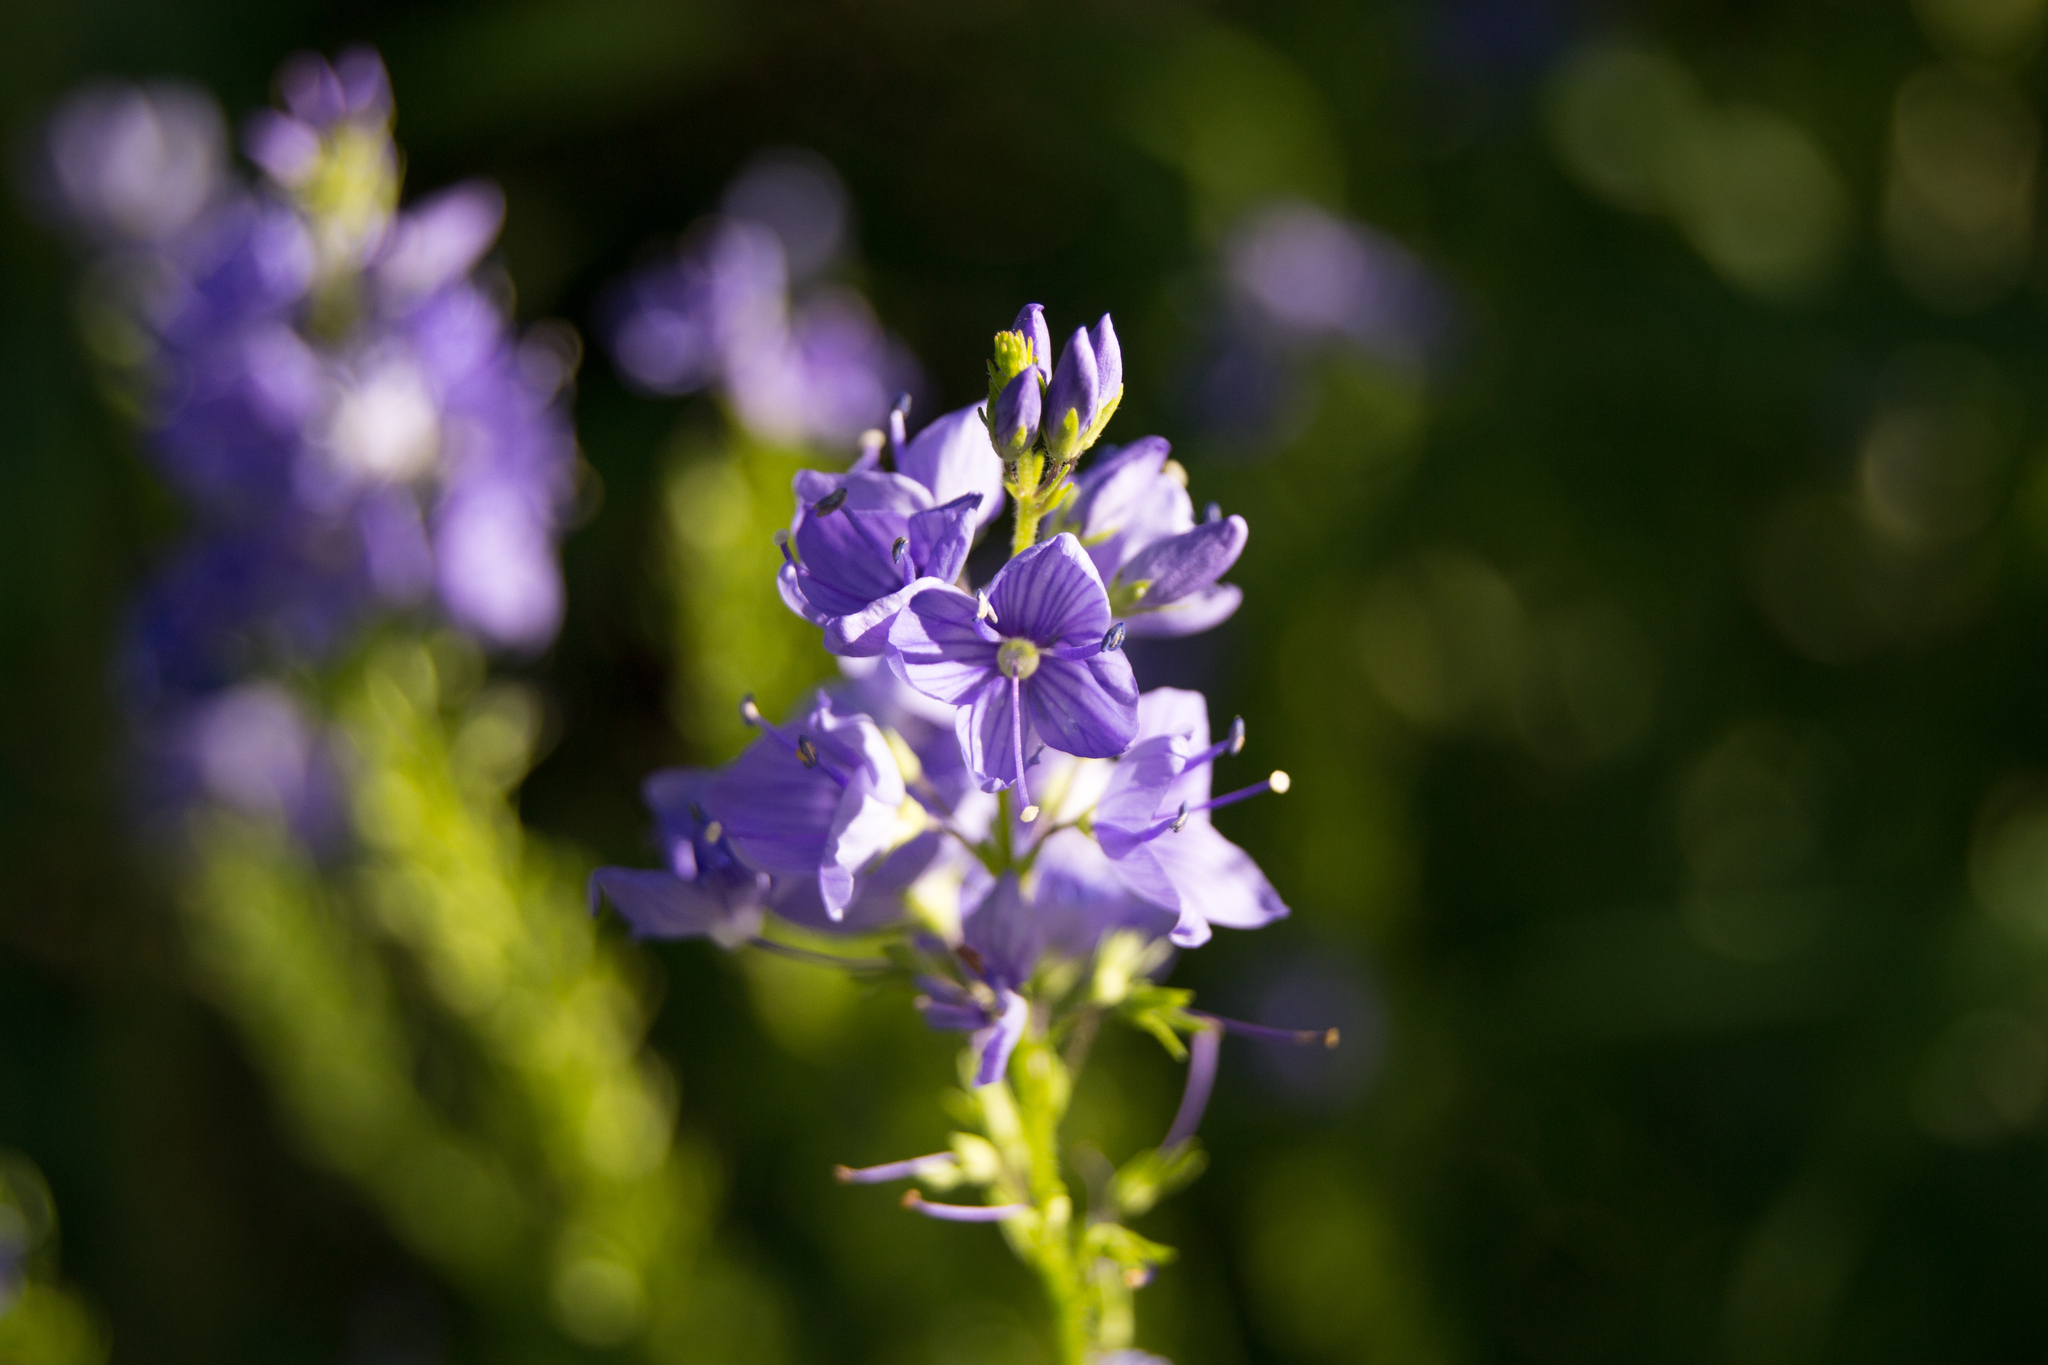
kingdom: Plantae
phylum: Tracheophyta
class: Magnoliopsida
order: Lamiales
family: Plantaginaceae
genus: Veronica
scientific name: Veronica teucrium
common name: Large speedwell
